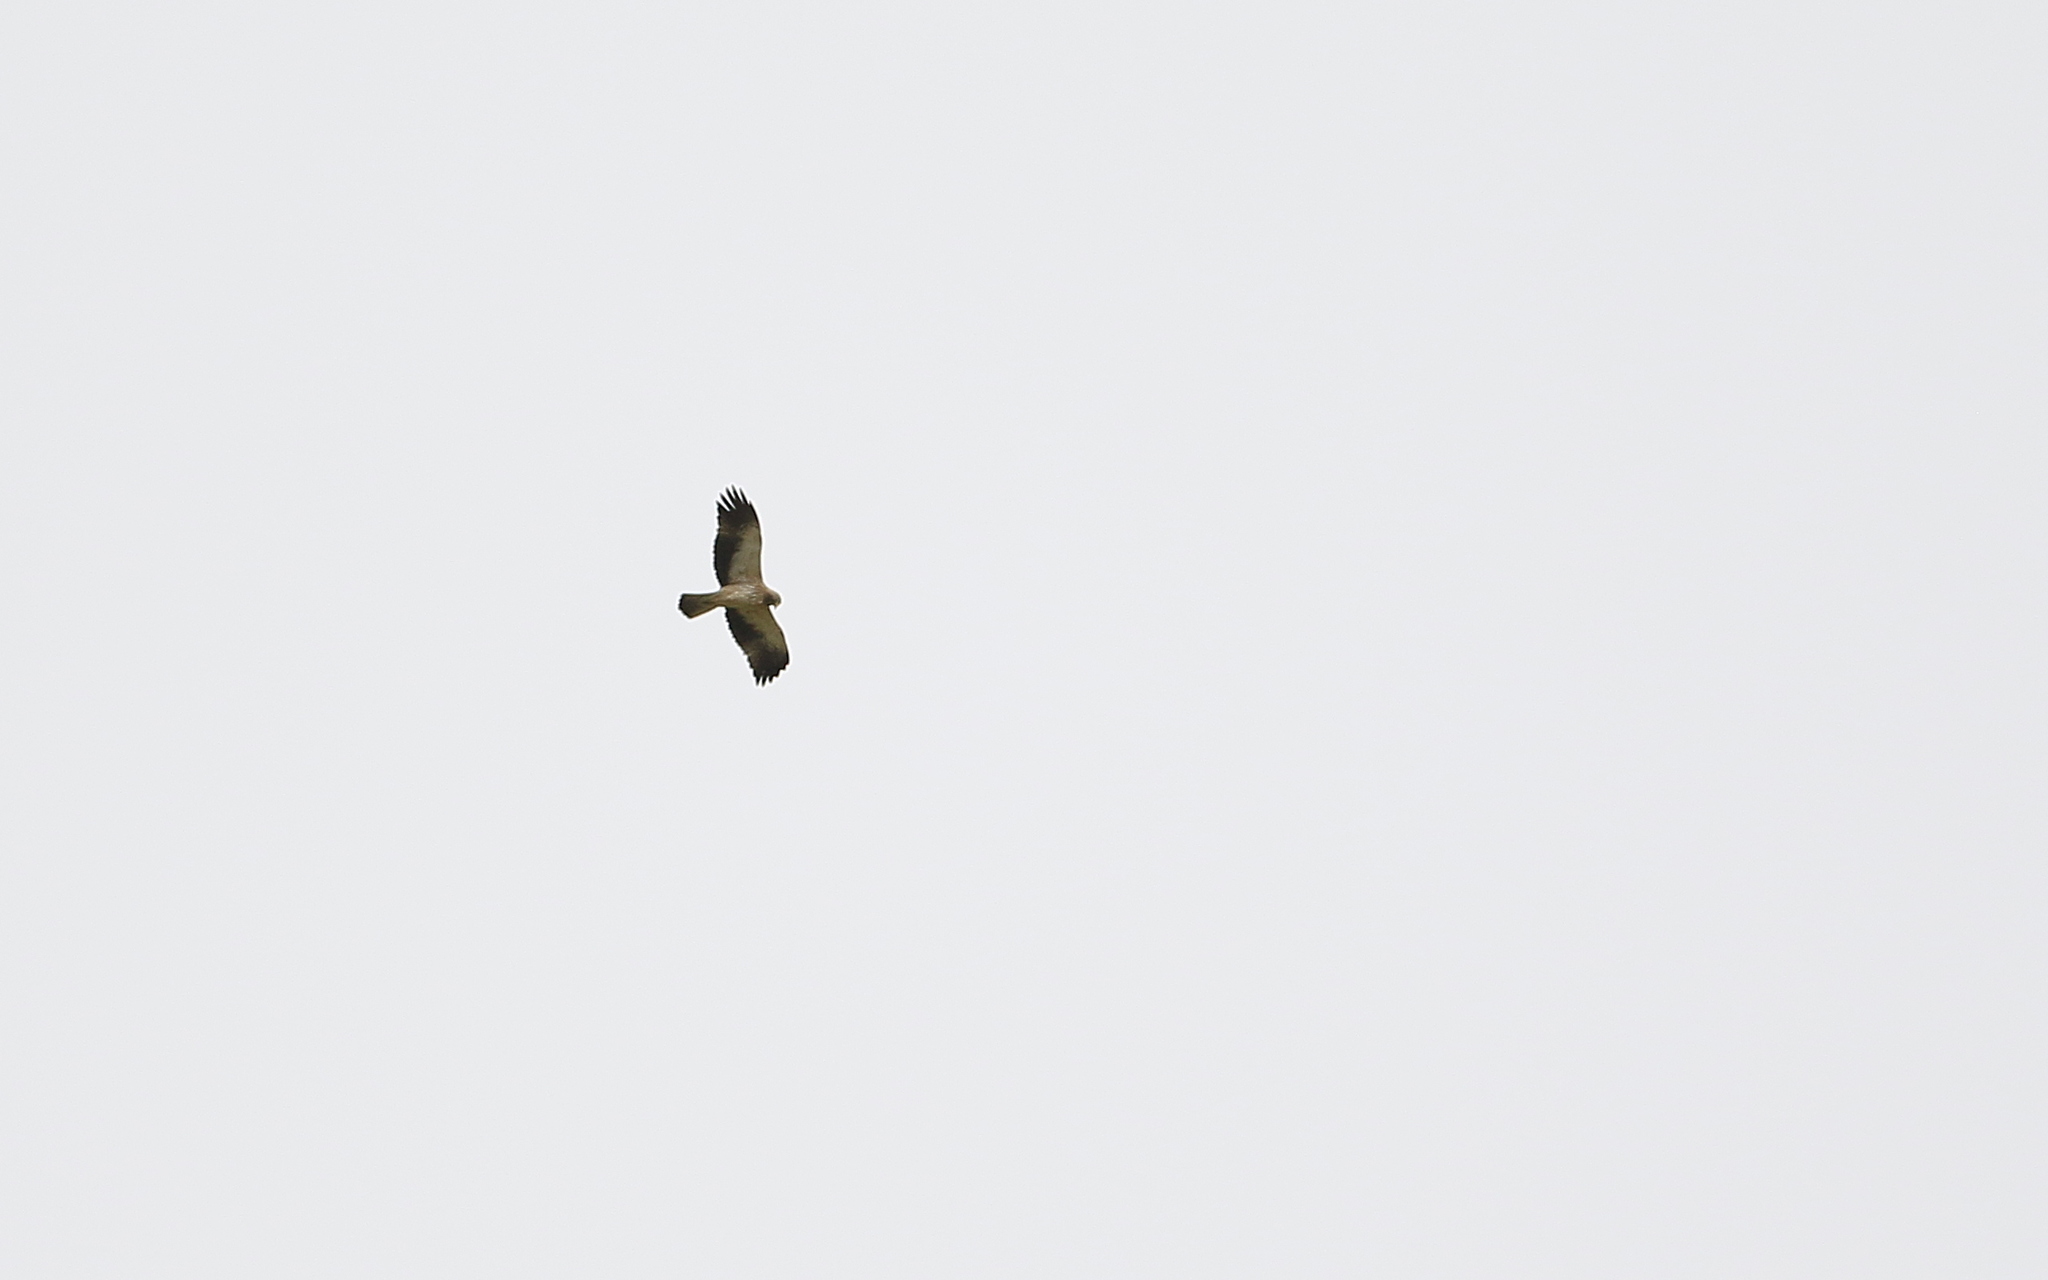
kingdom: Animalia
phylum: Chordata
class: Aves
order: Accipitriformes
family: Accipitridae
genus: Hieraaetus
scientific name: Hieraaetus pennatus
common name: Booted eagle
